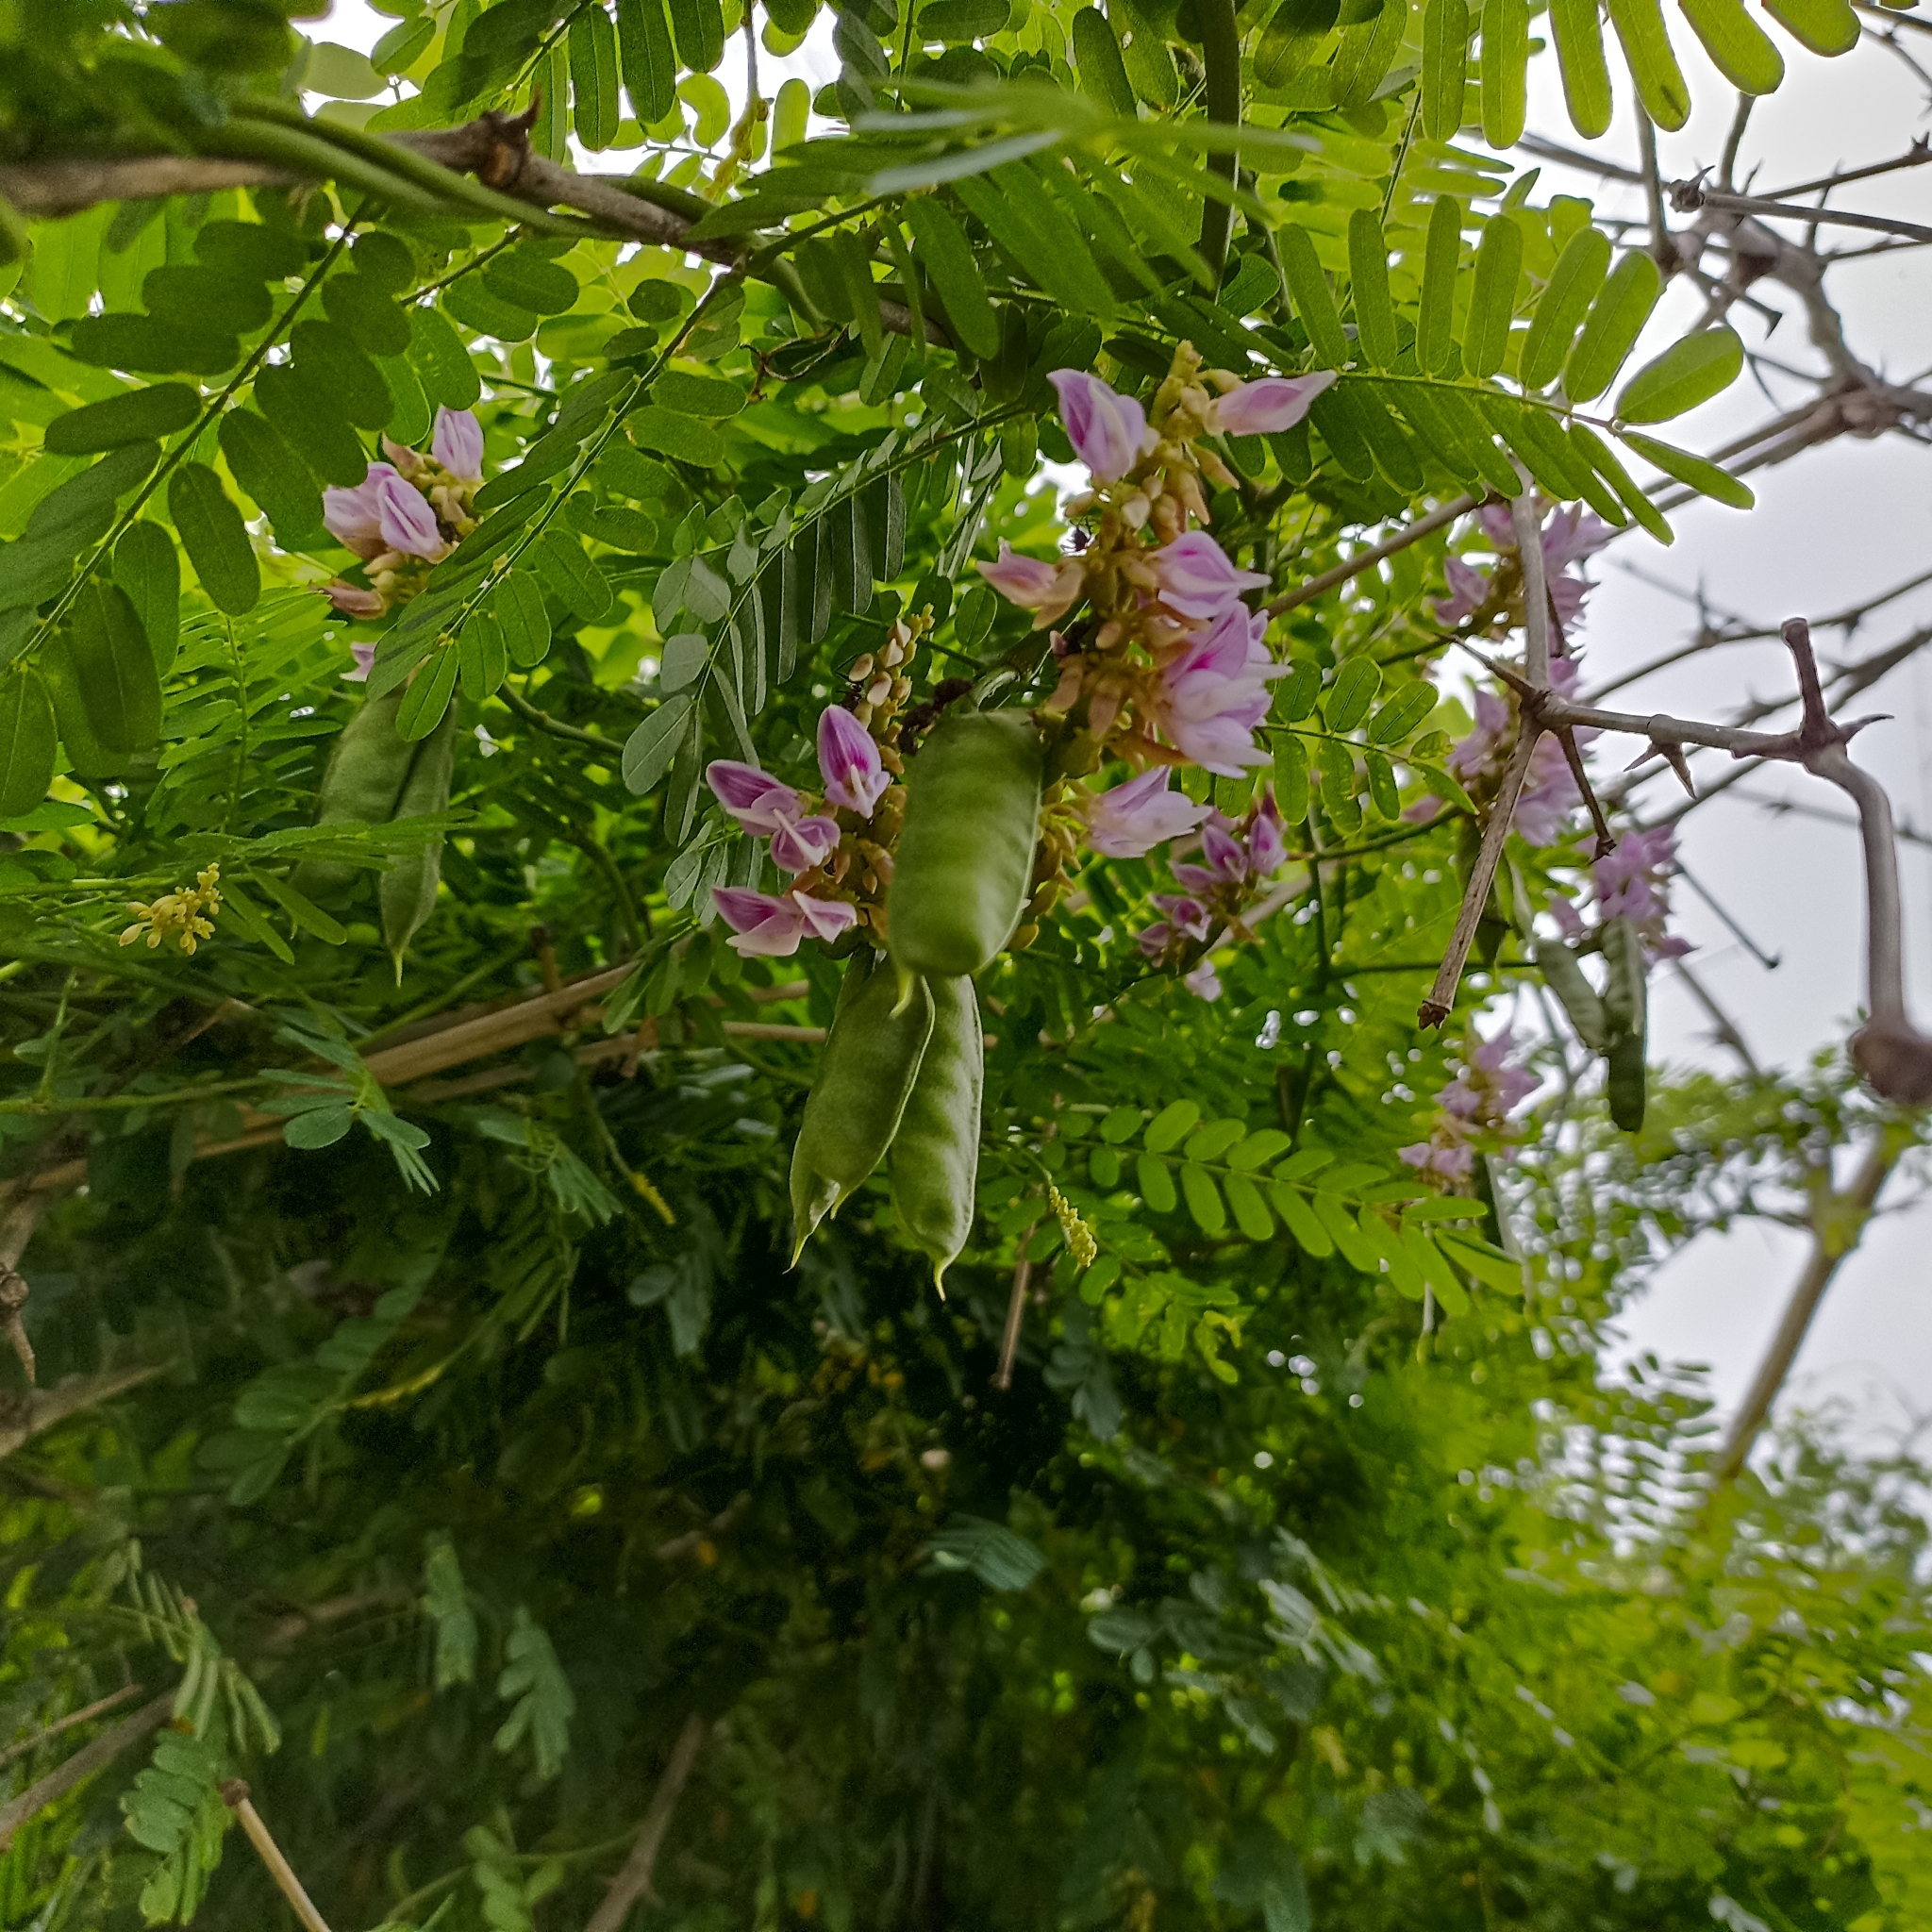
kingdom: Plantae
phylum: Tracheophyta
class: Magnoliopsida
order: Fabales
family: Fabaceae
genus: Abrus
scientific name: Abrus precatorius
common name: Rosarypea
